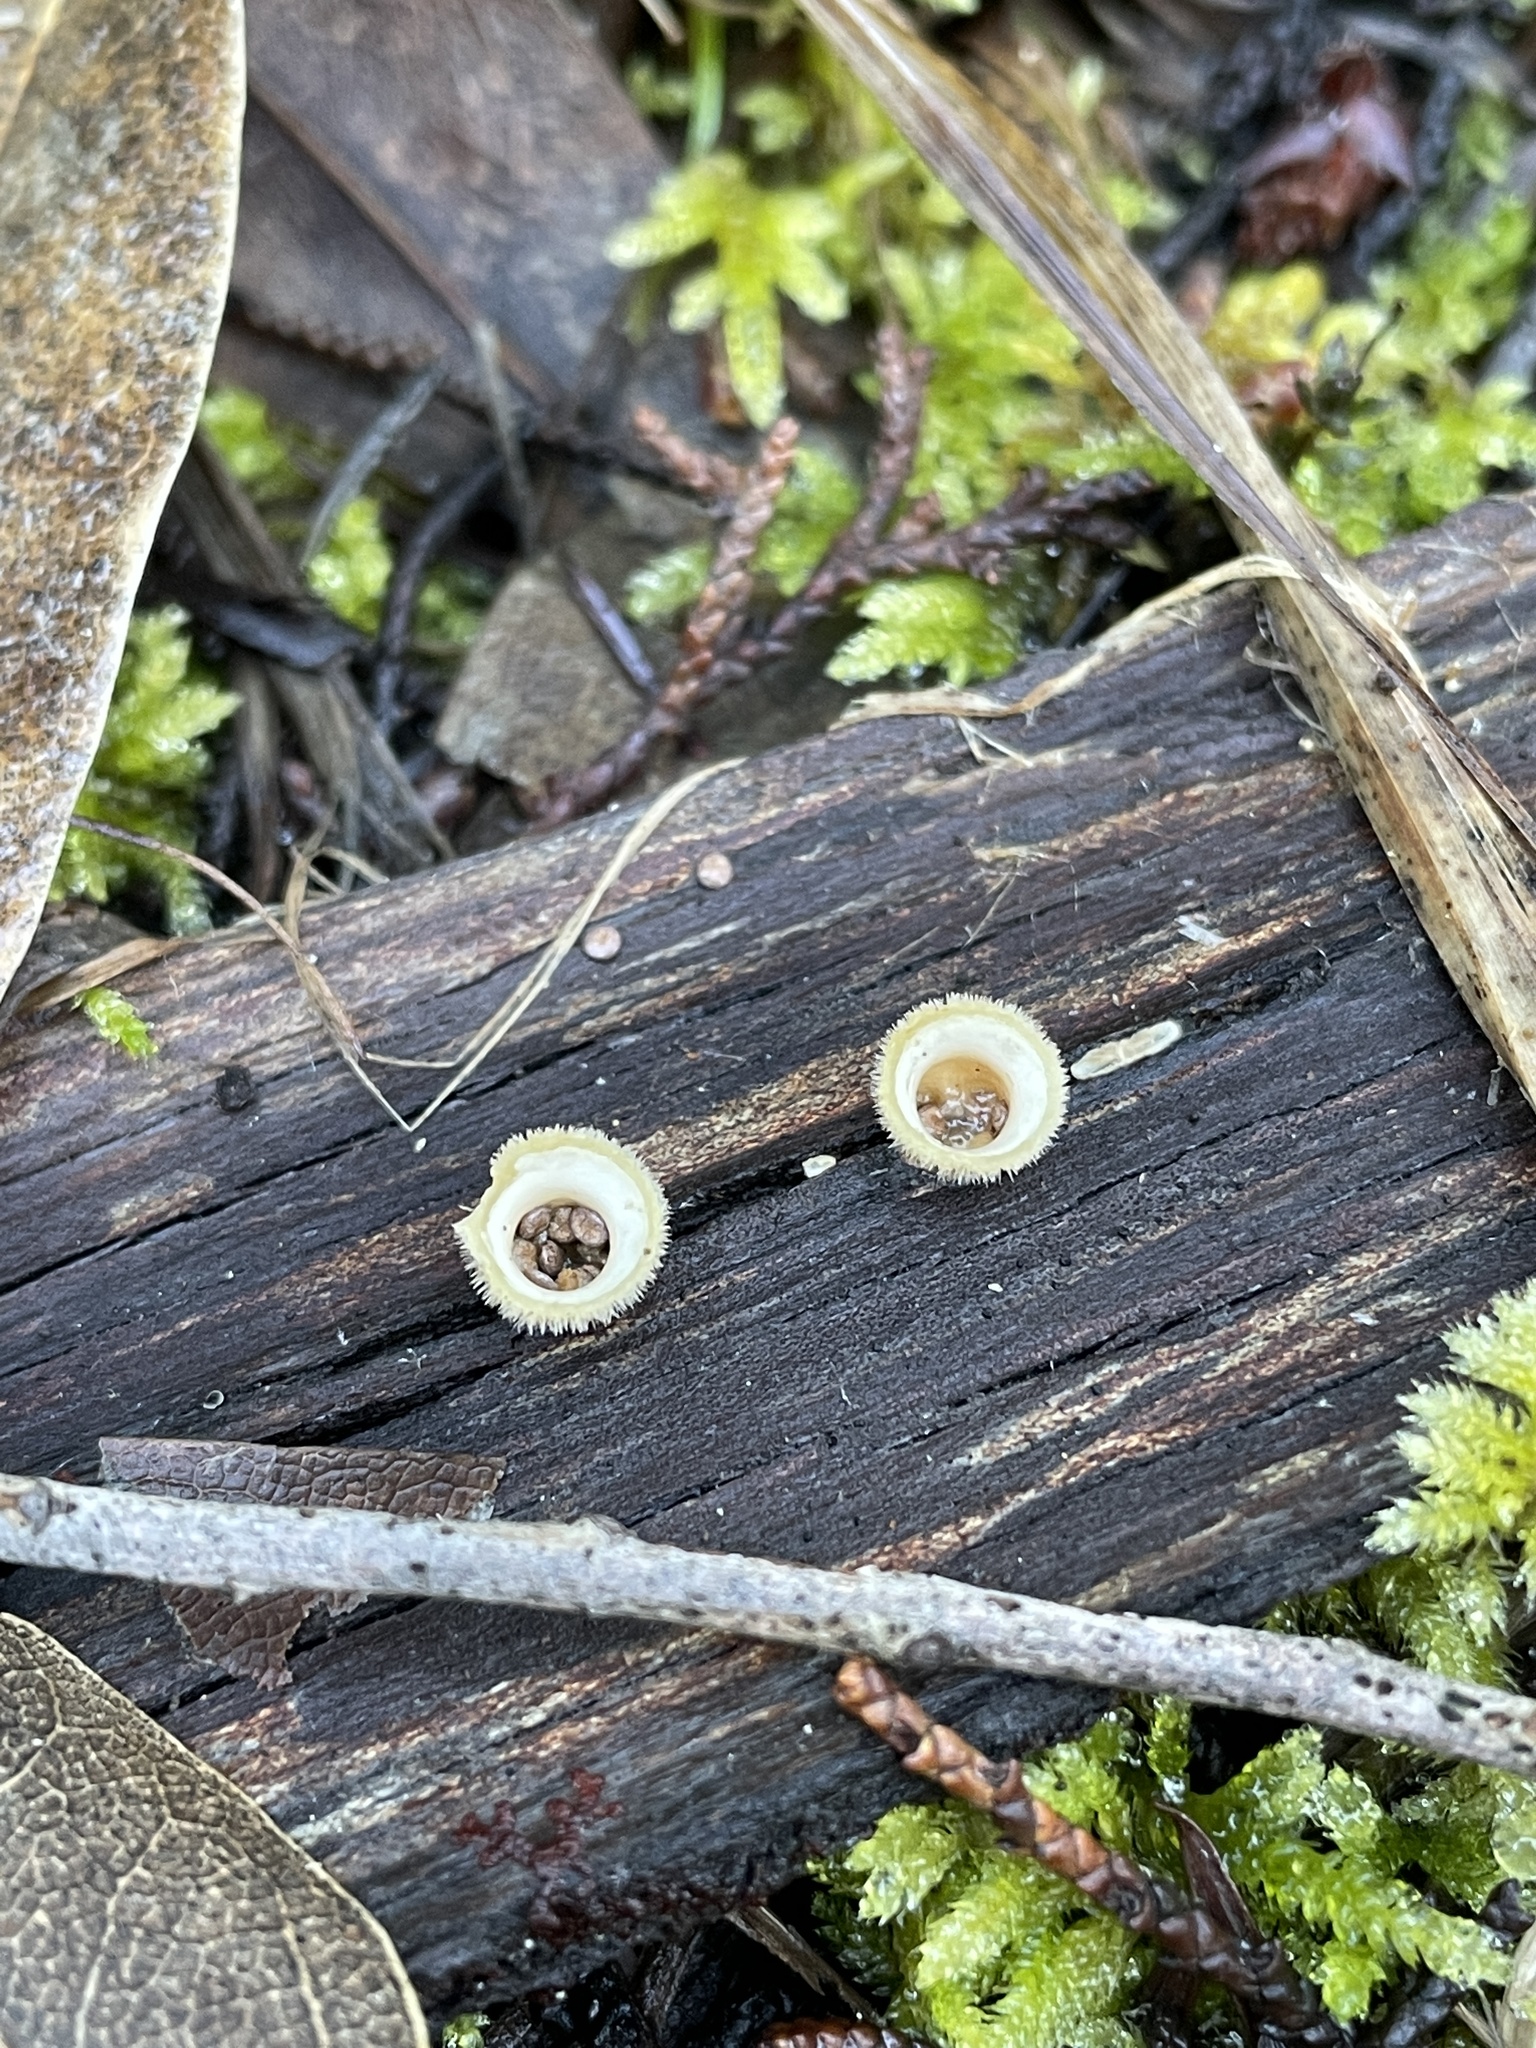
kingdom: Fungi
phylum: Basidiomycota
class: Agaricomycetes
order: Agaricales
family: Agaricaceae
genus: Nidula
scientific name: Nidula niveotomentosa
